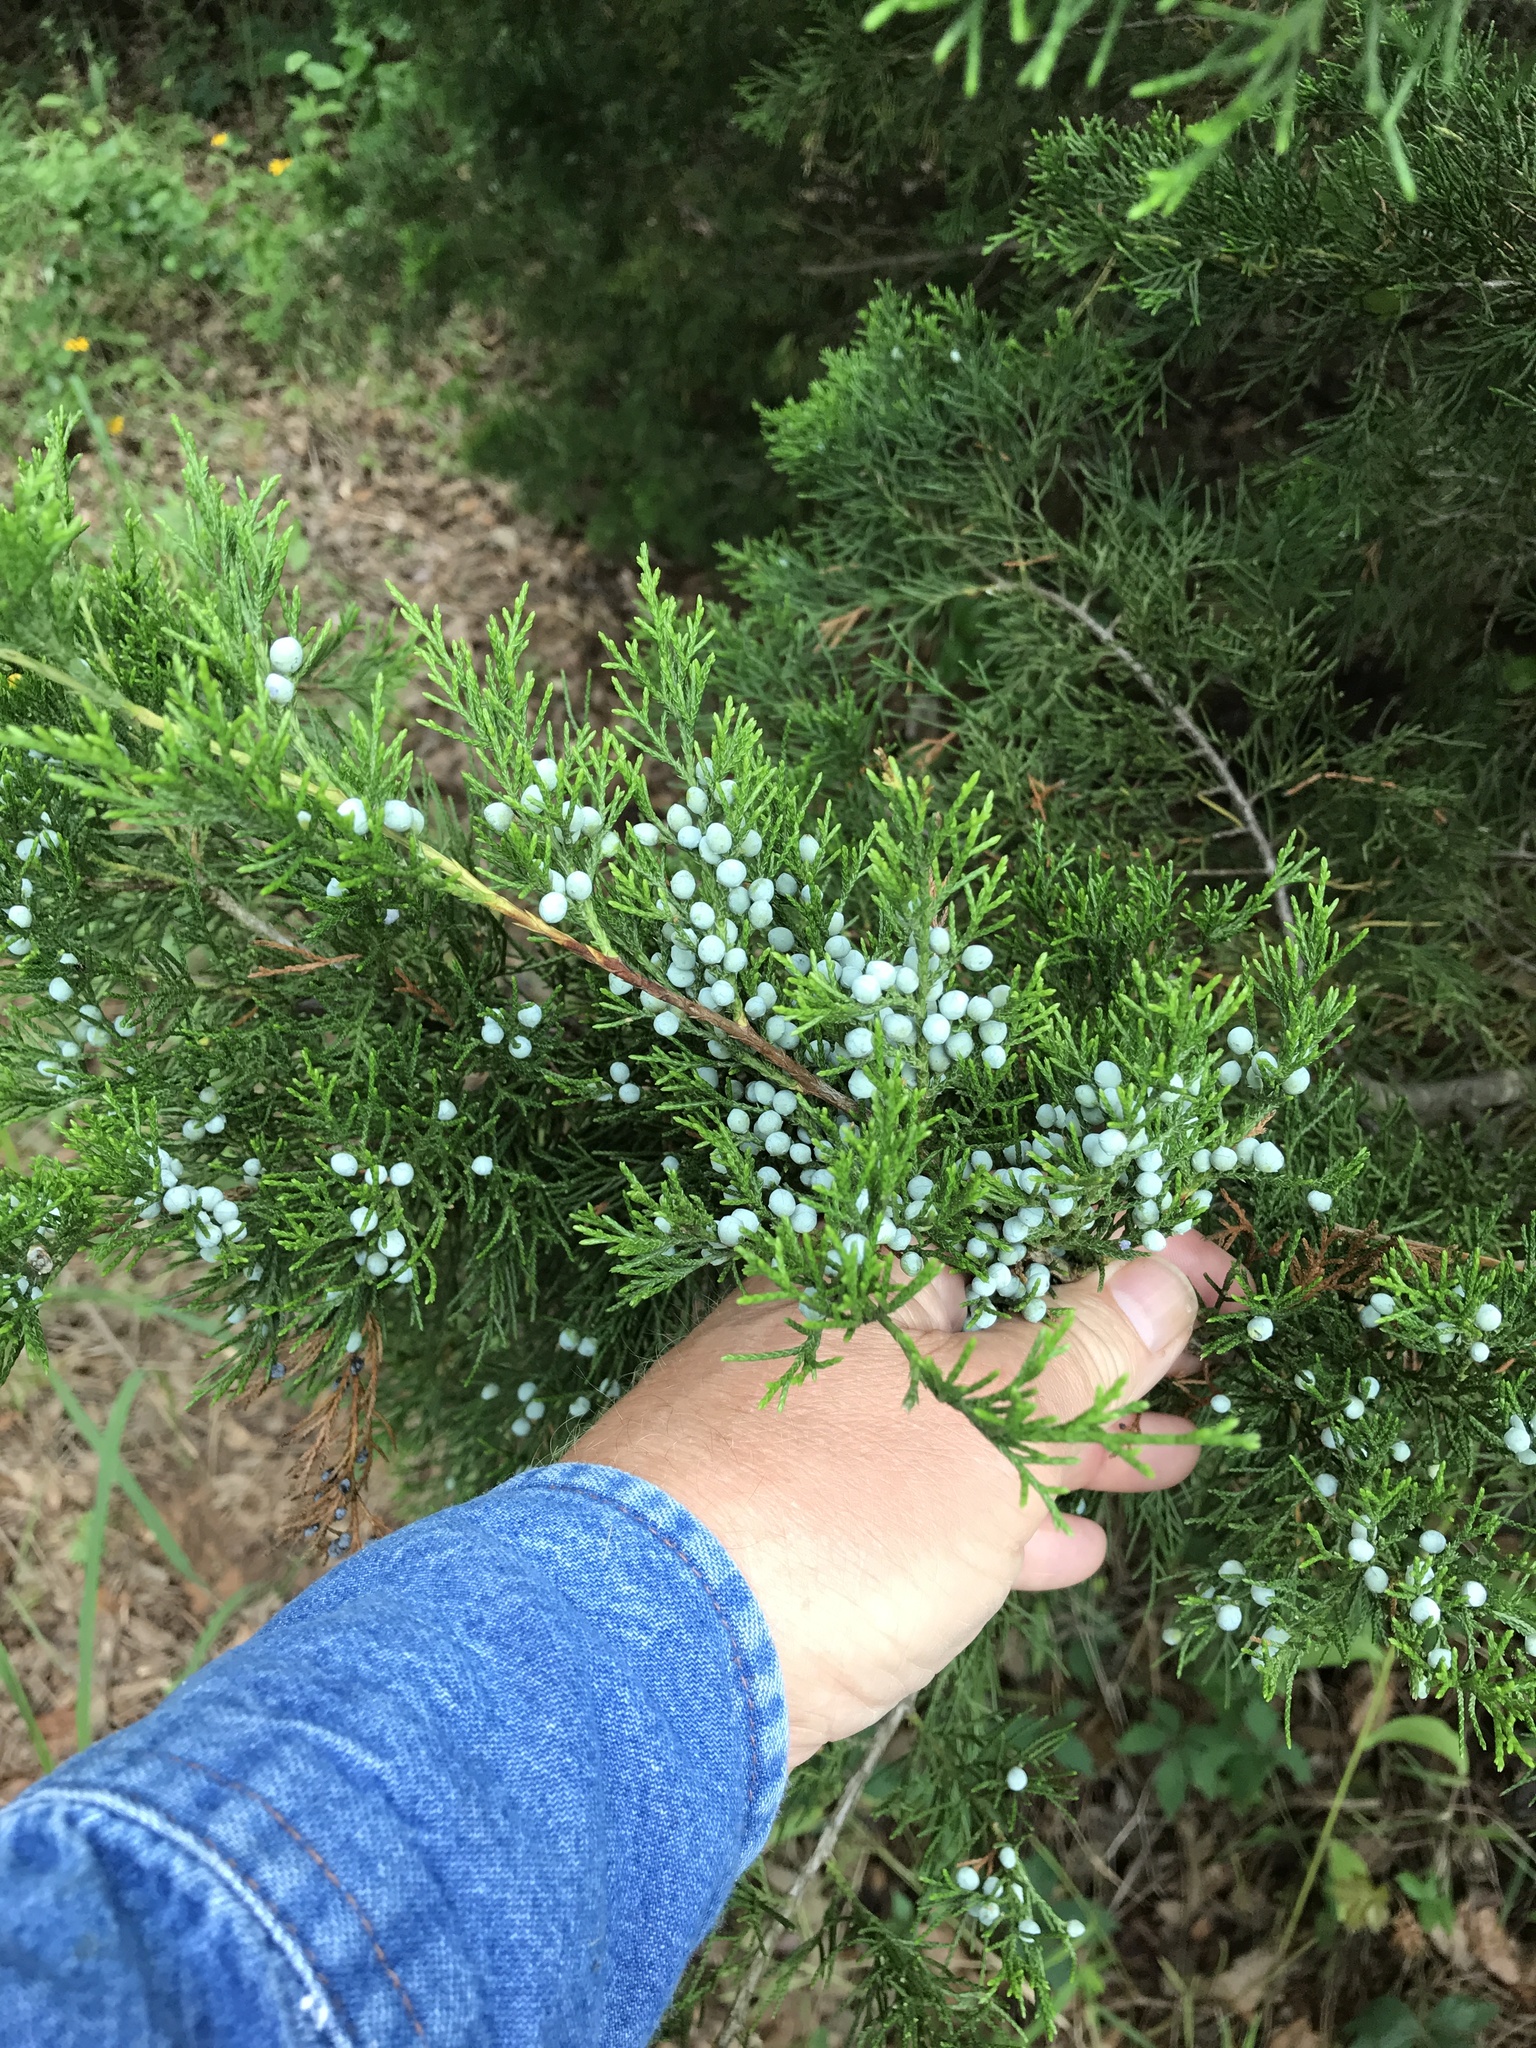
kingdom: Plantae
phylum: Tracheophyta
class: Pinopsida
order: Pinales
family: Cupressaceae
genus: Juniperus
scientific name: Juniperus virginiana
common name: Red juniper
